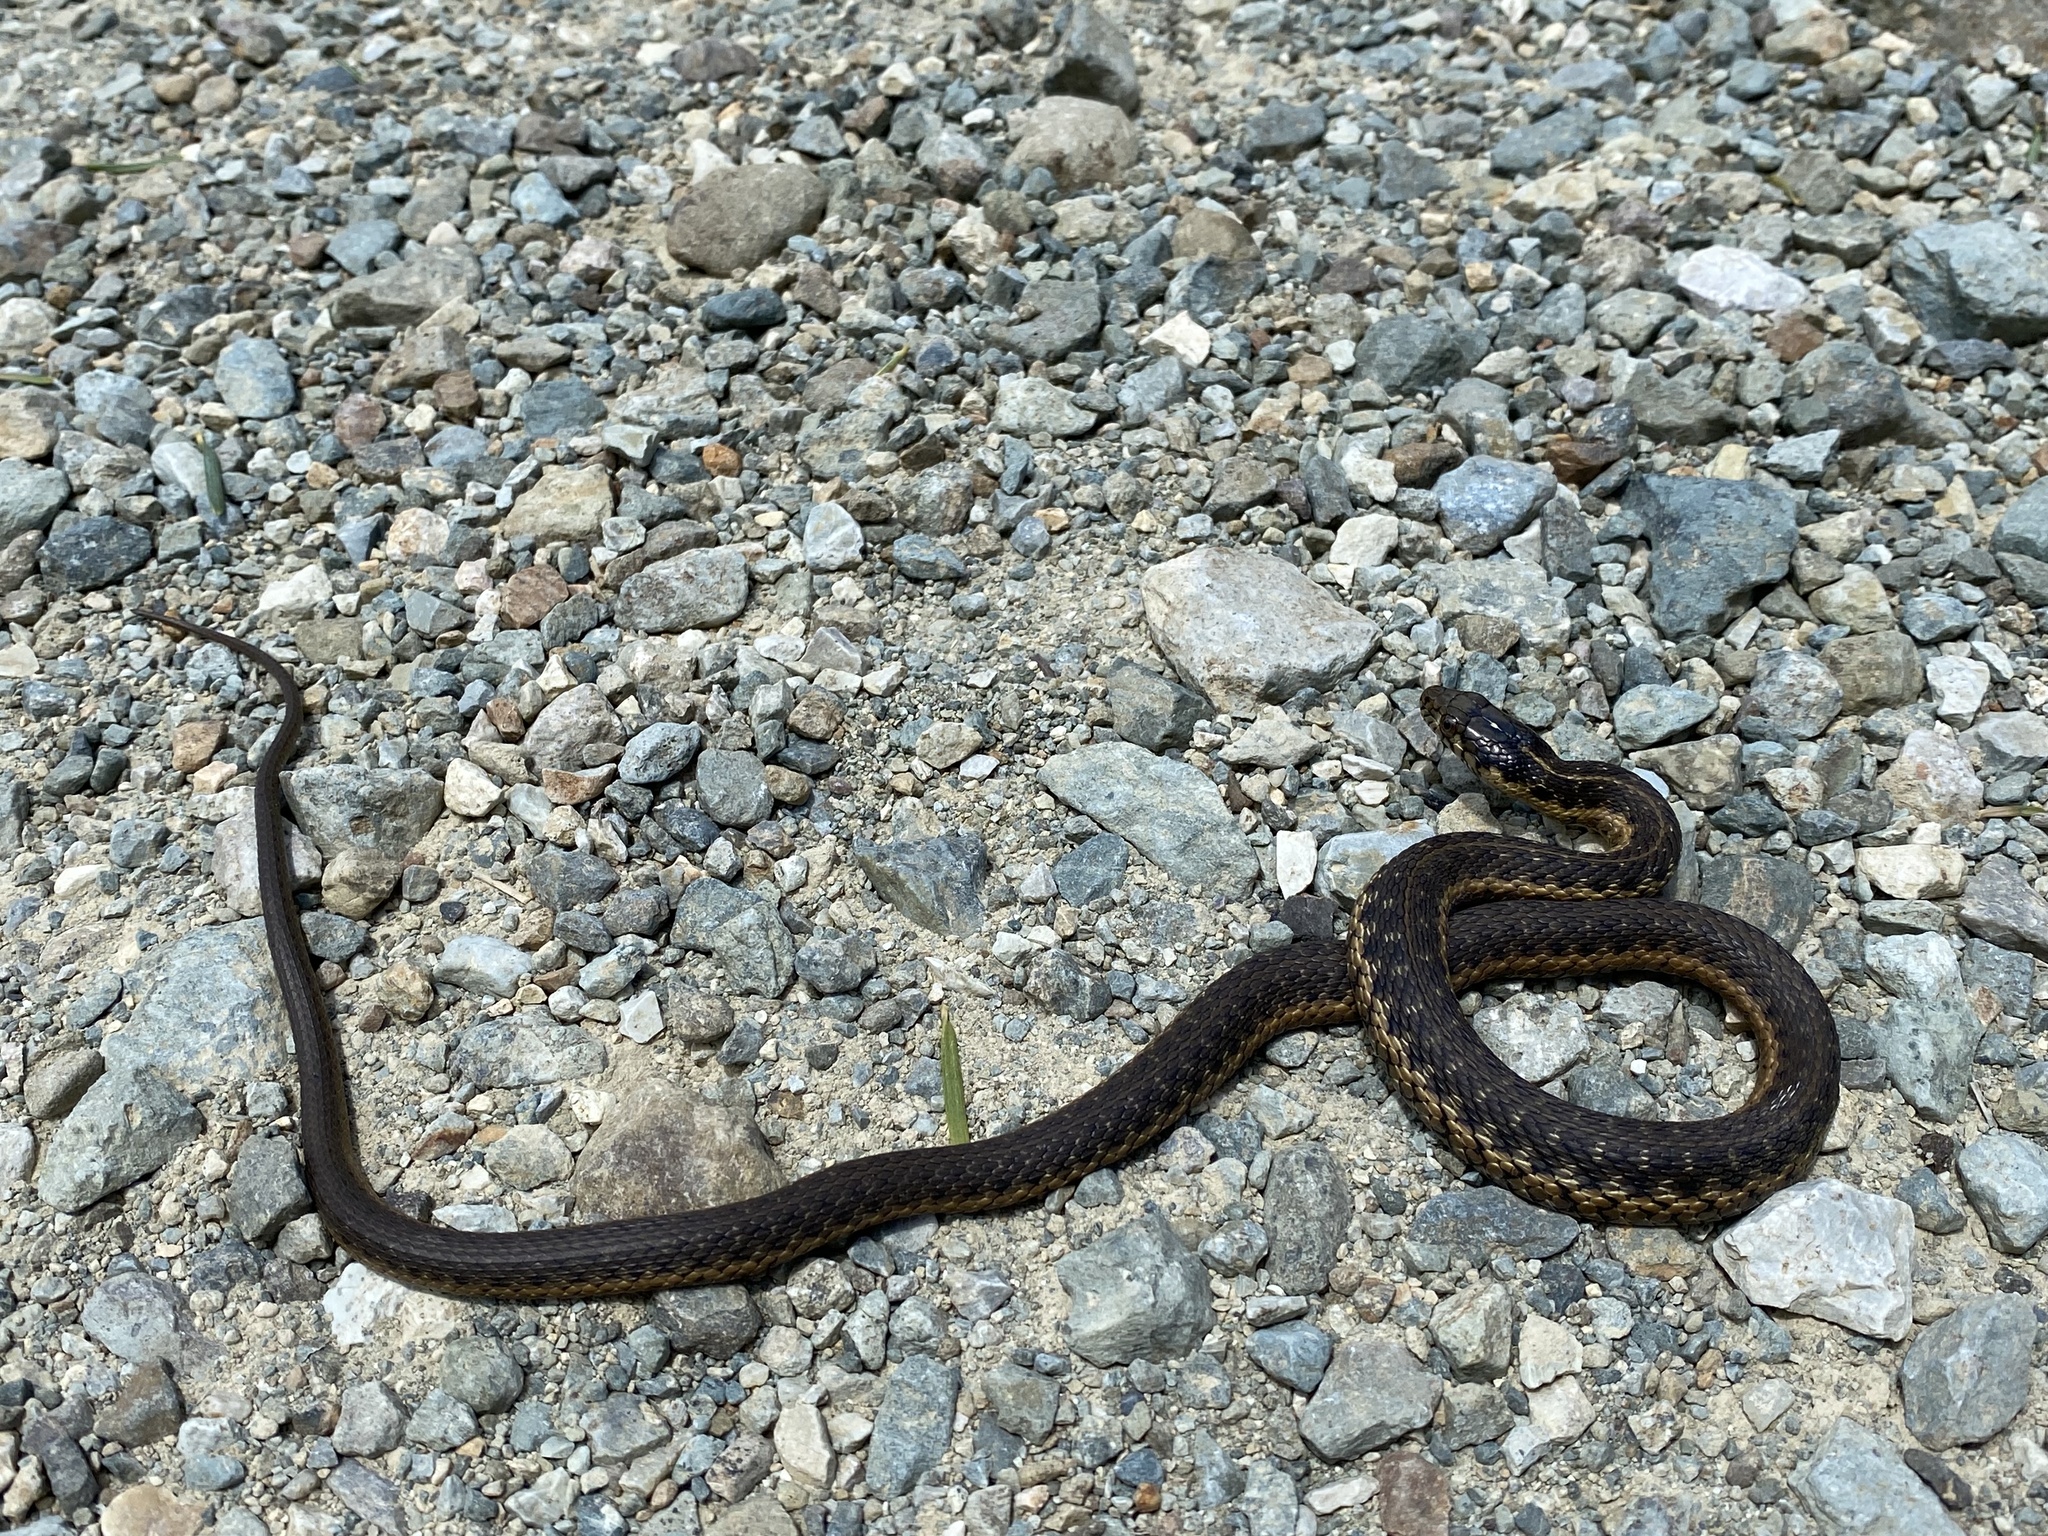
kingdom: Animalia
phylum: Chordata
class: Squamata
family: Colubridae
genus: Thamnophis
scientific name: Thamnophis couchii
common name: Western aquatic garter snake
